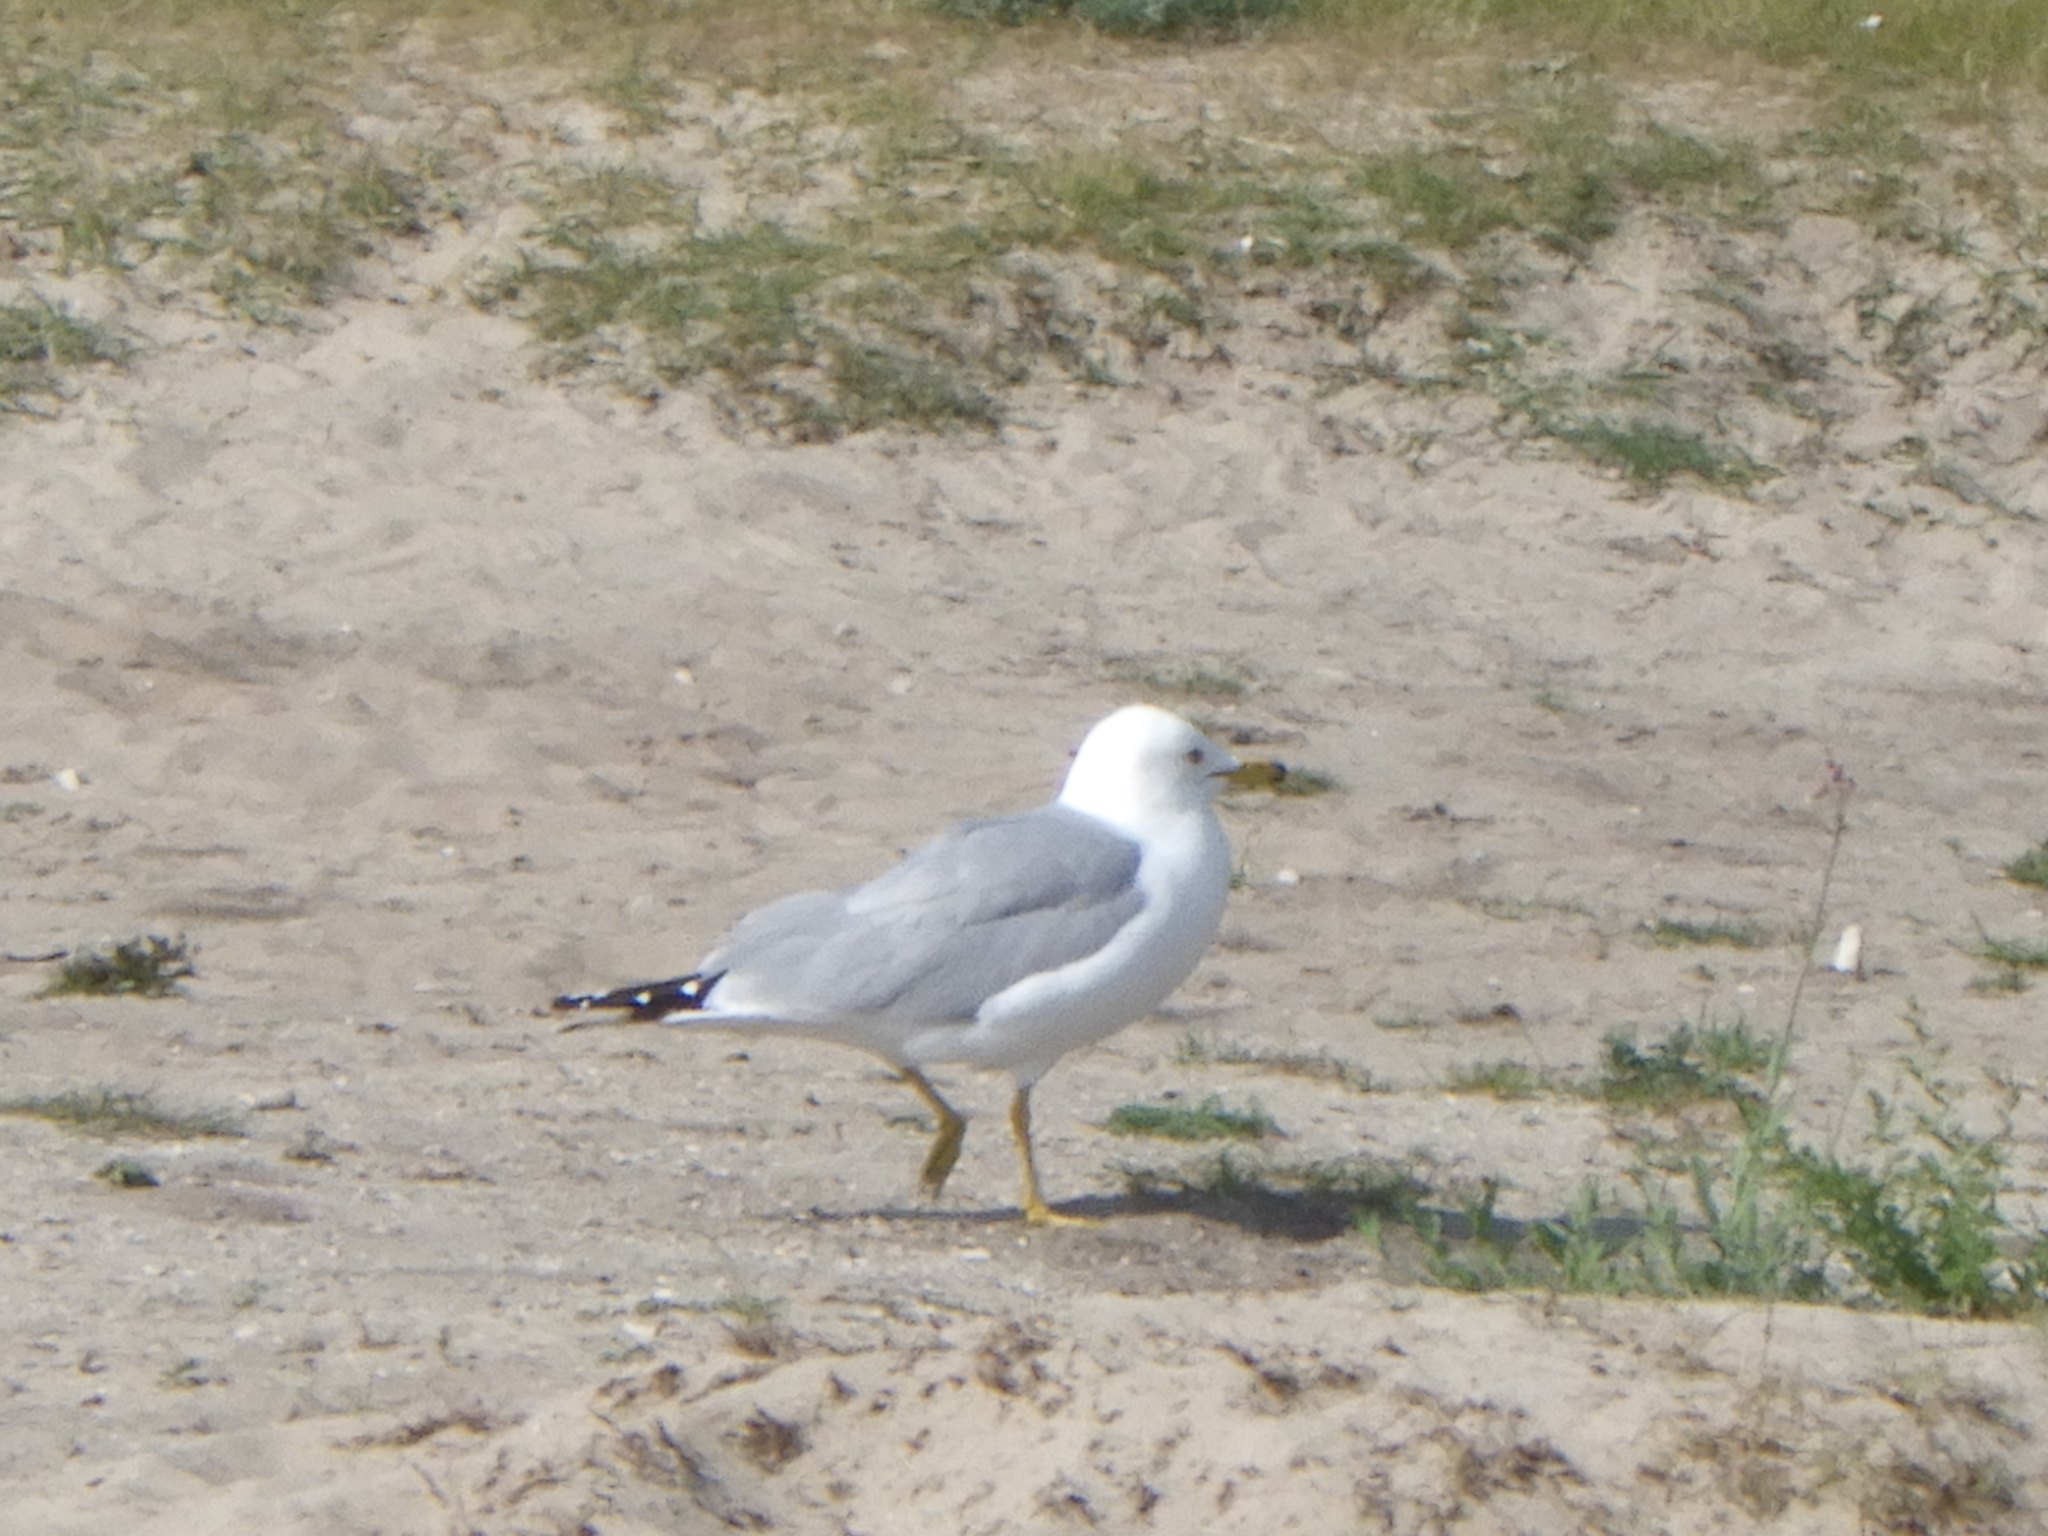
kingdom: Animalia
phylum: Chordata
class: Aves
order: Charadriiformes
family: Laridae
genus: Larus
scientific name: Larus delawarensis
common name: Ring-billed gull
